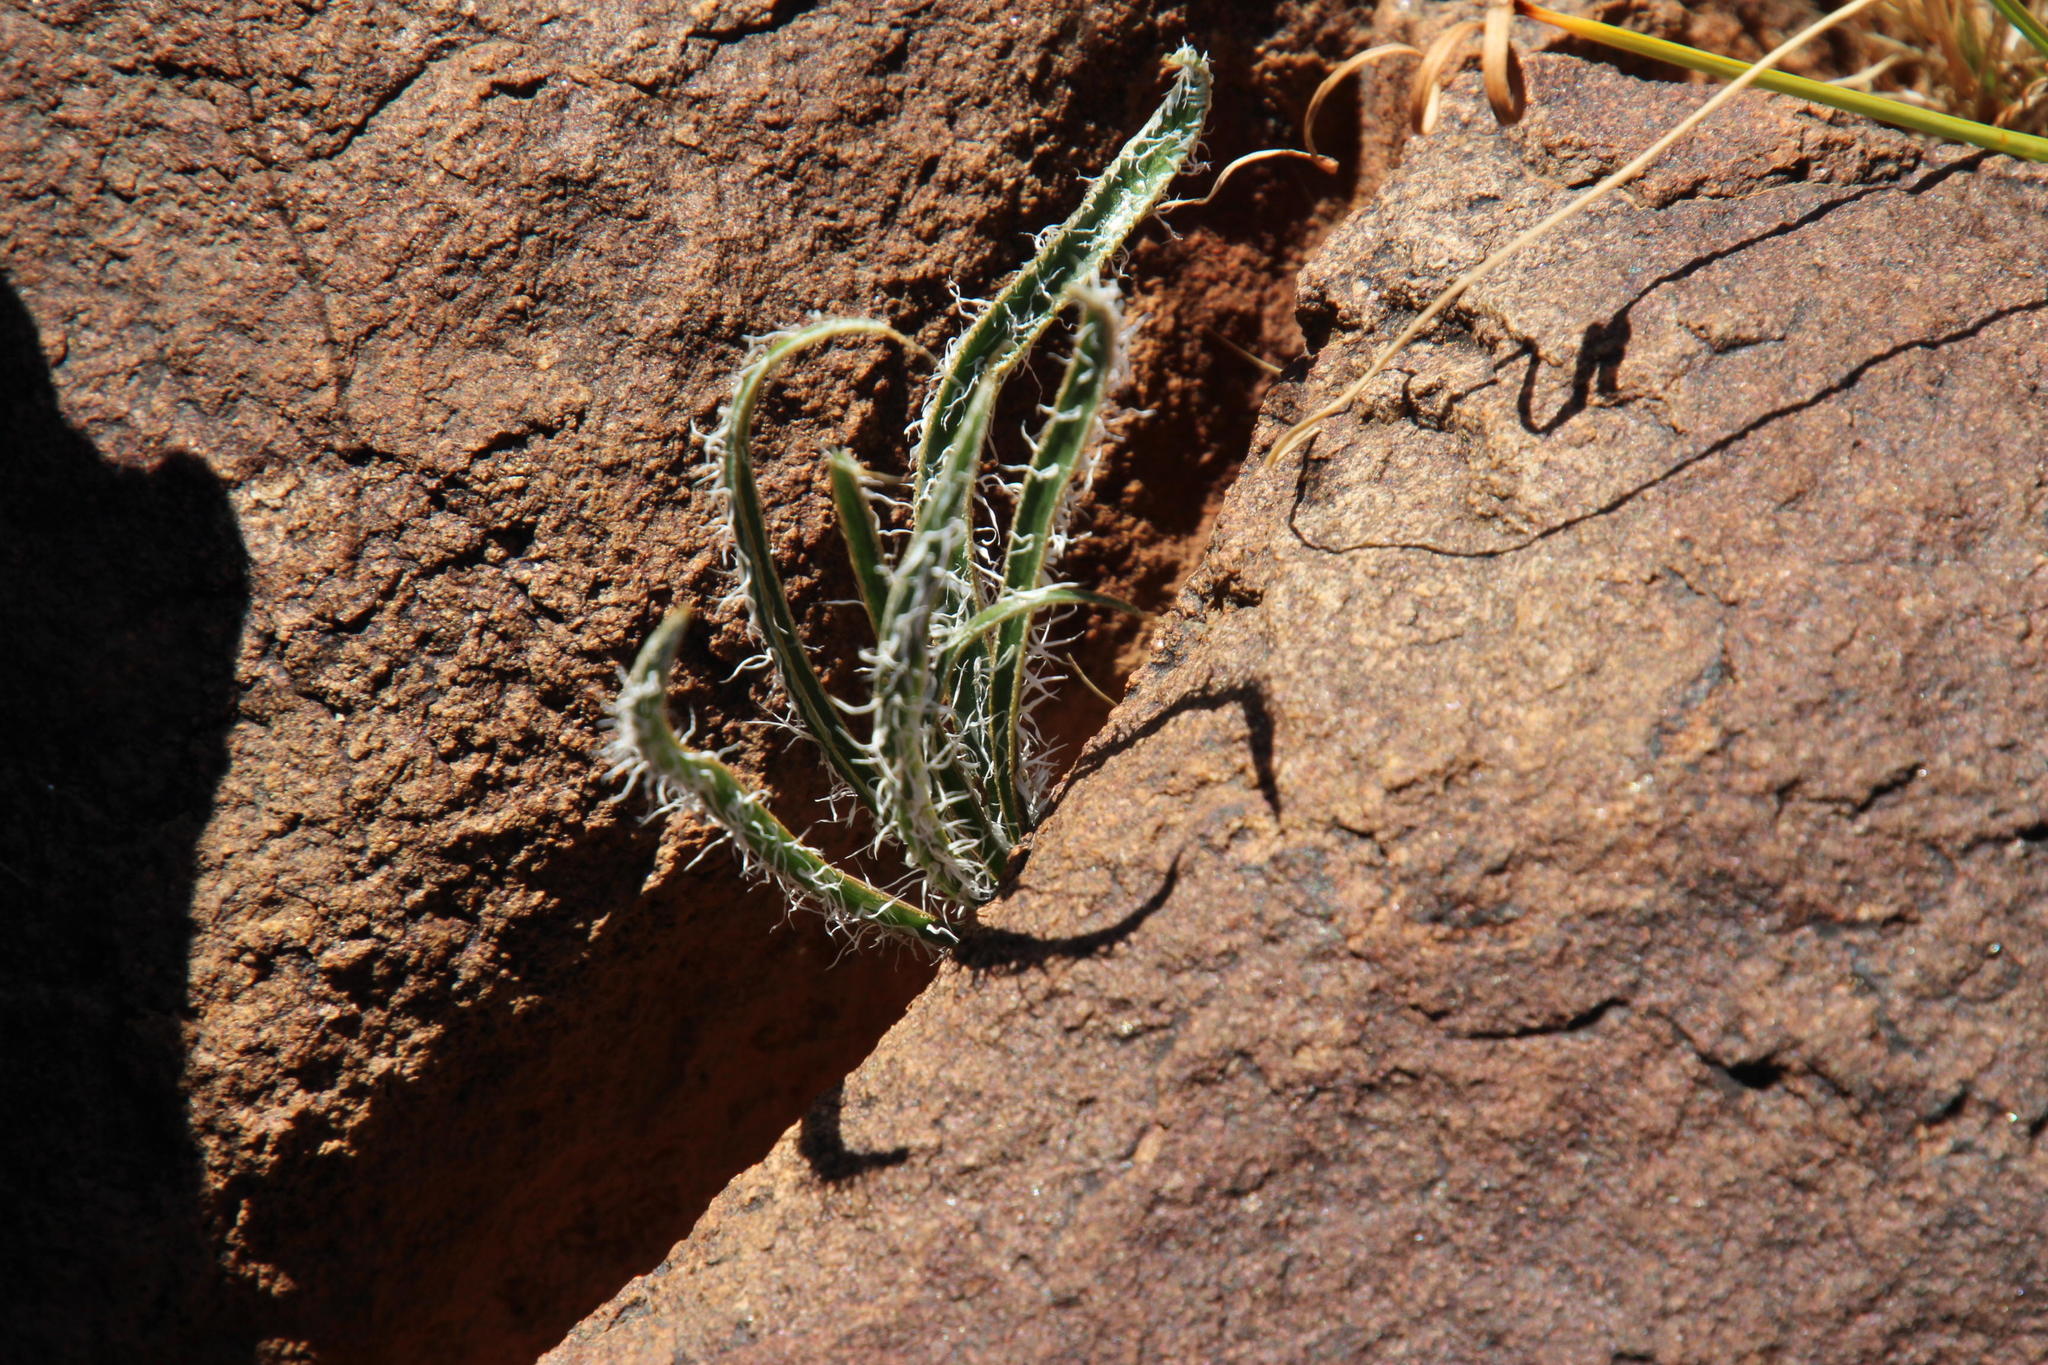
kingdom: Plantae
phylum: Tracheophyta
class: Liliopsida
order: Asparagales
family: Amaryllidaceae
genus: Gethyllis
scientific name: Gethyllis longistyla
